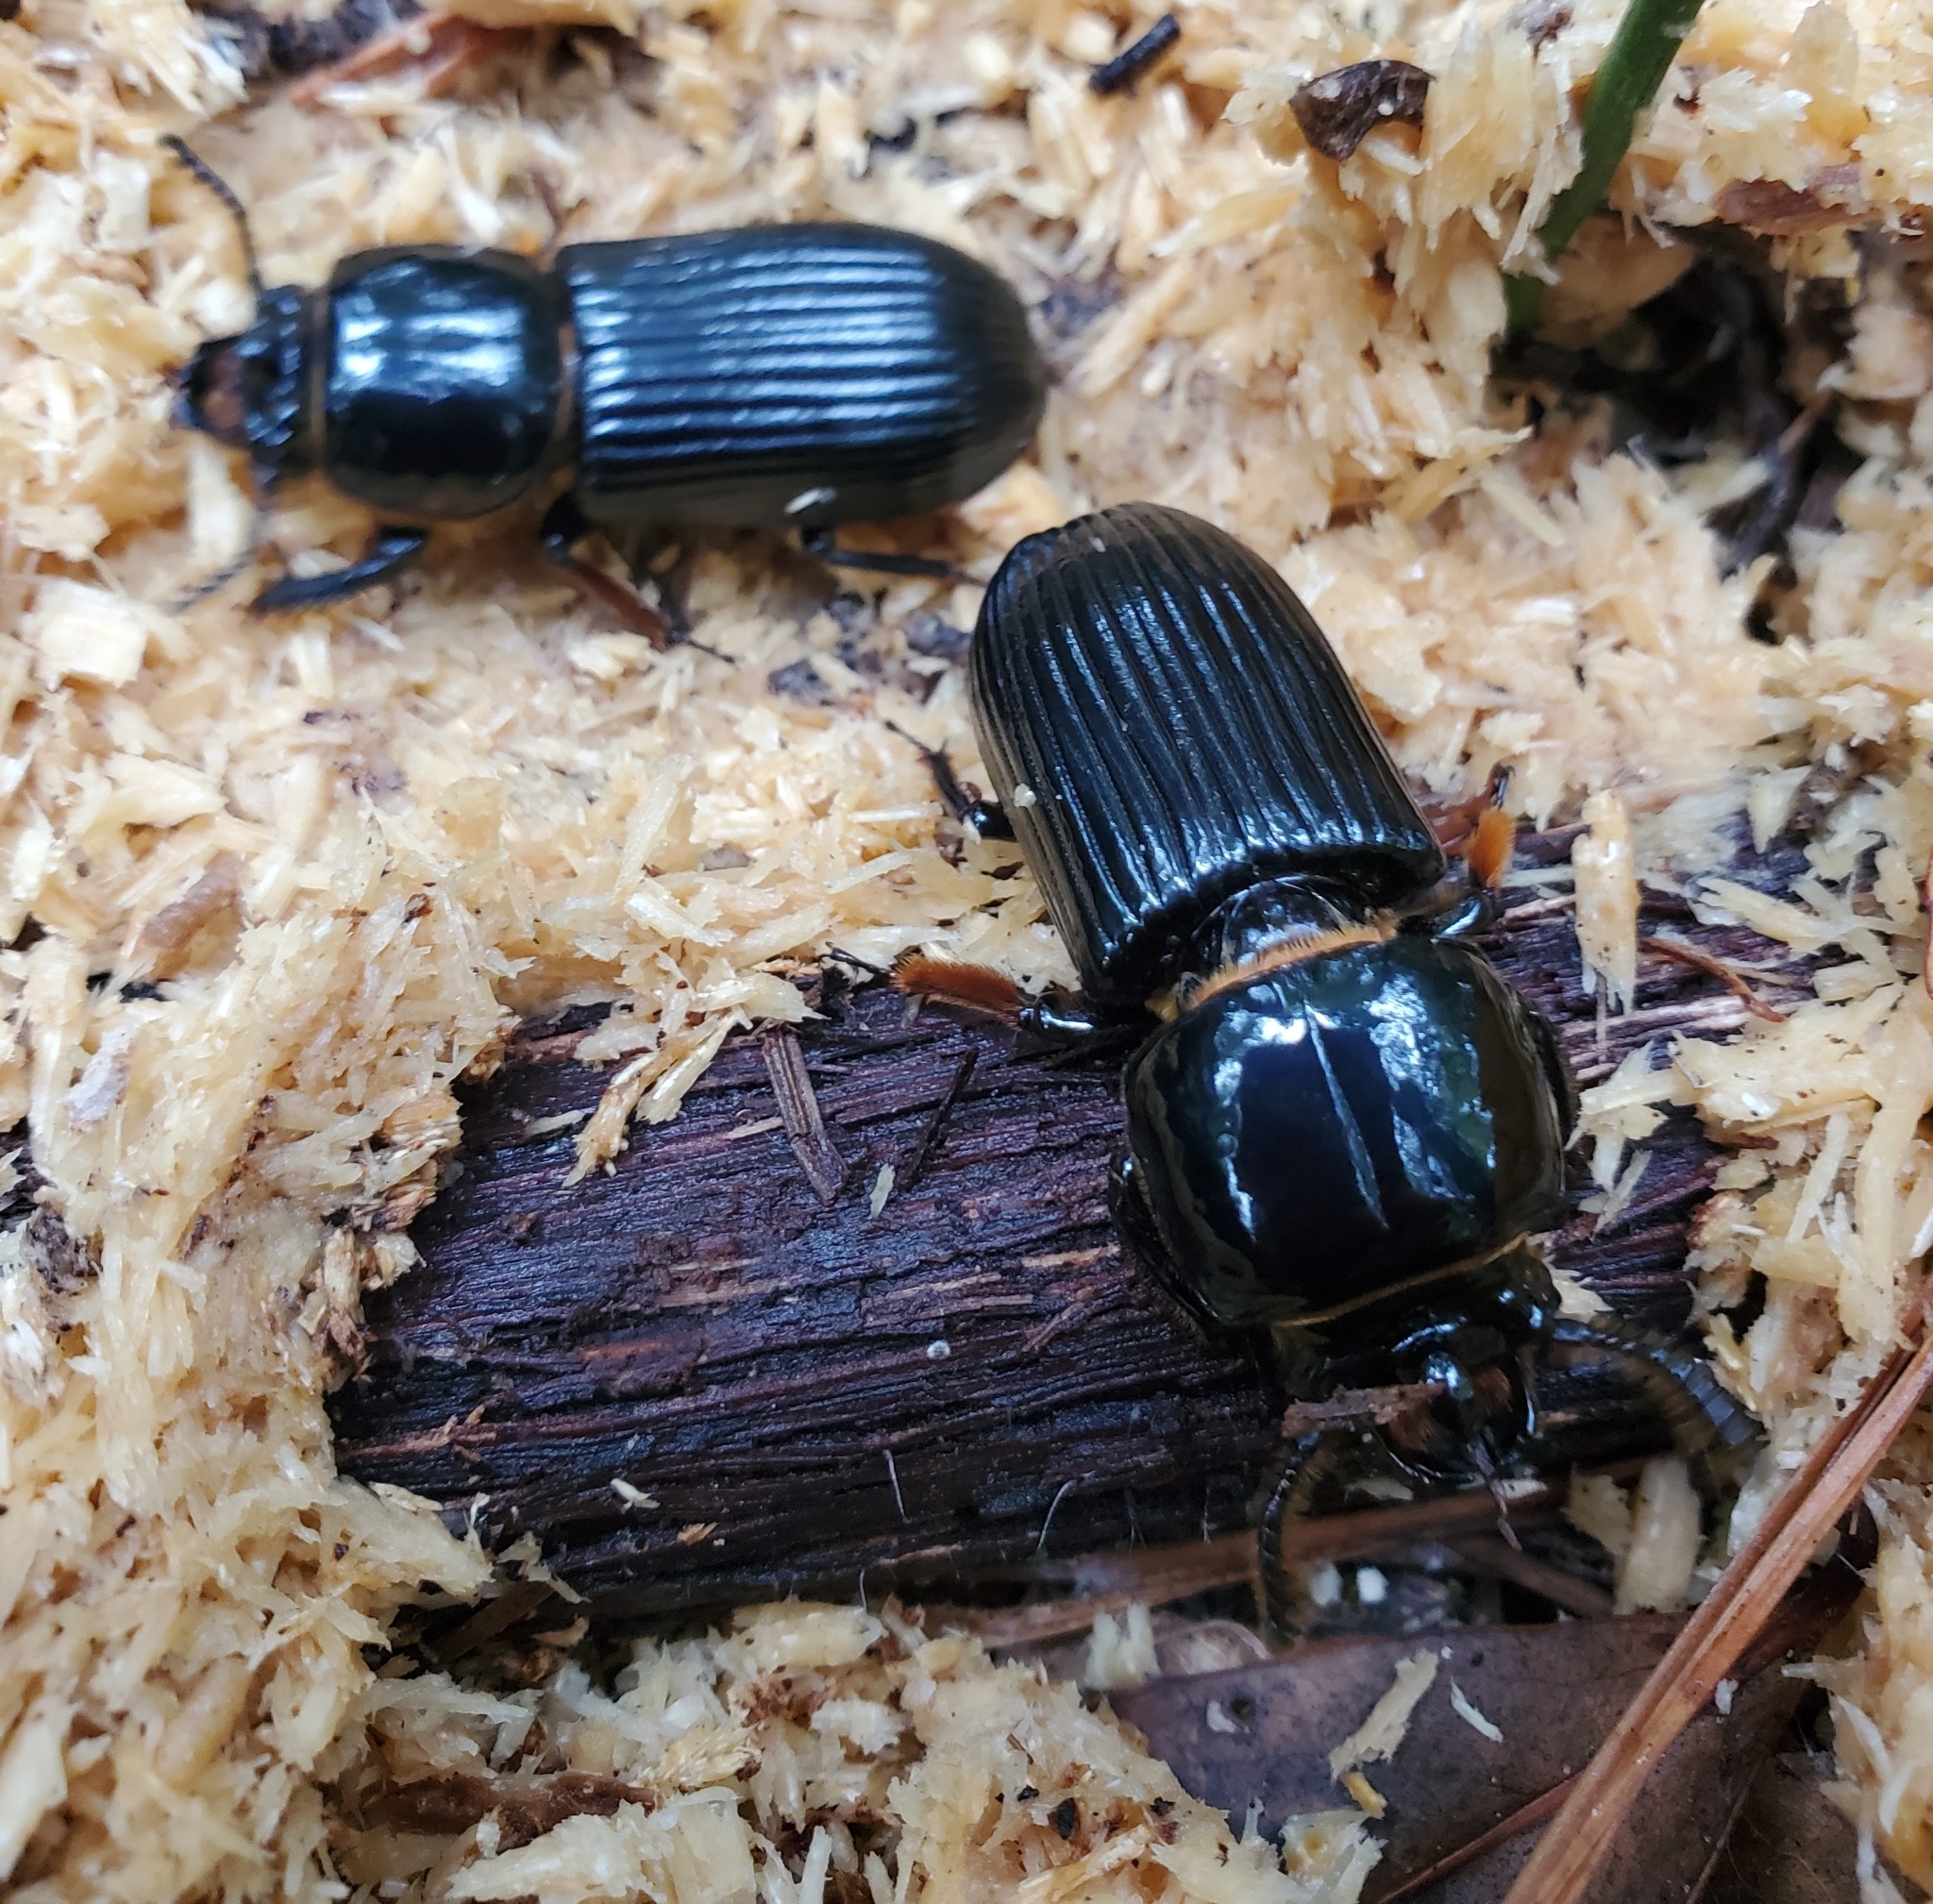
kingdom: Animalia
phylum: Arthropoda
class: Insecta
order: Coleoptera
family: Passalidae
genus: Odontotaenius
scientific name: Odontotaenius disjunctus
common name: Patent leather beetle
